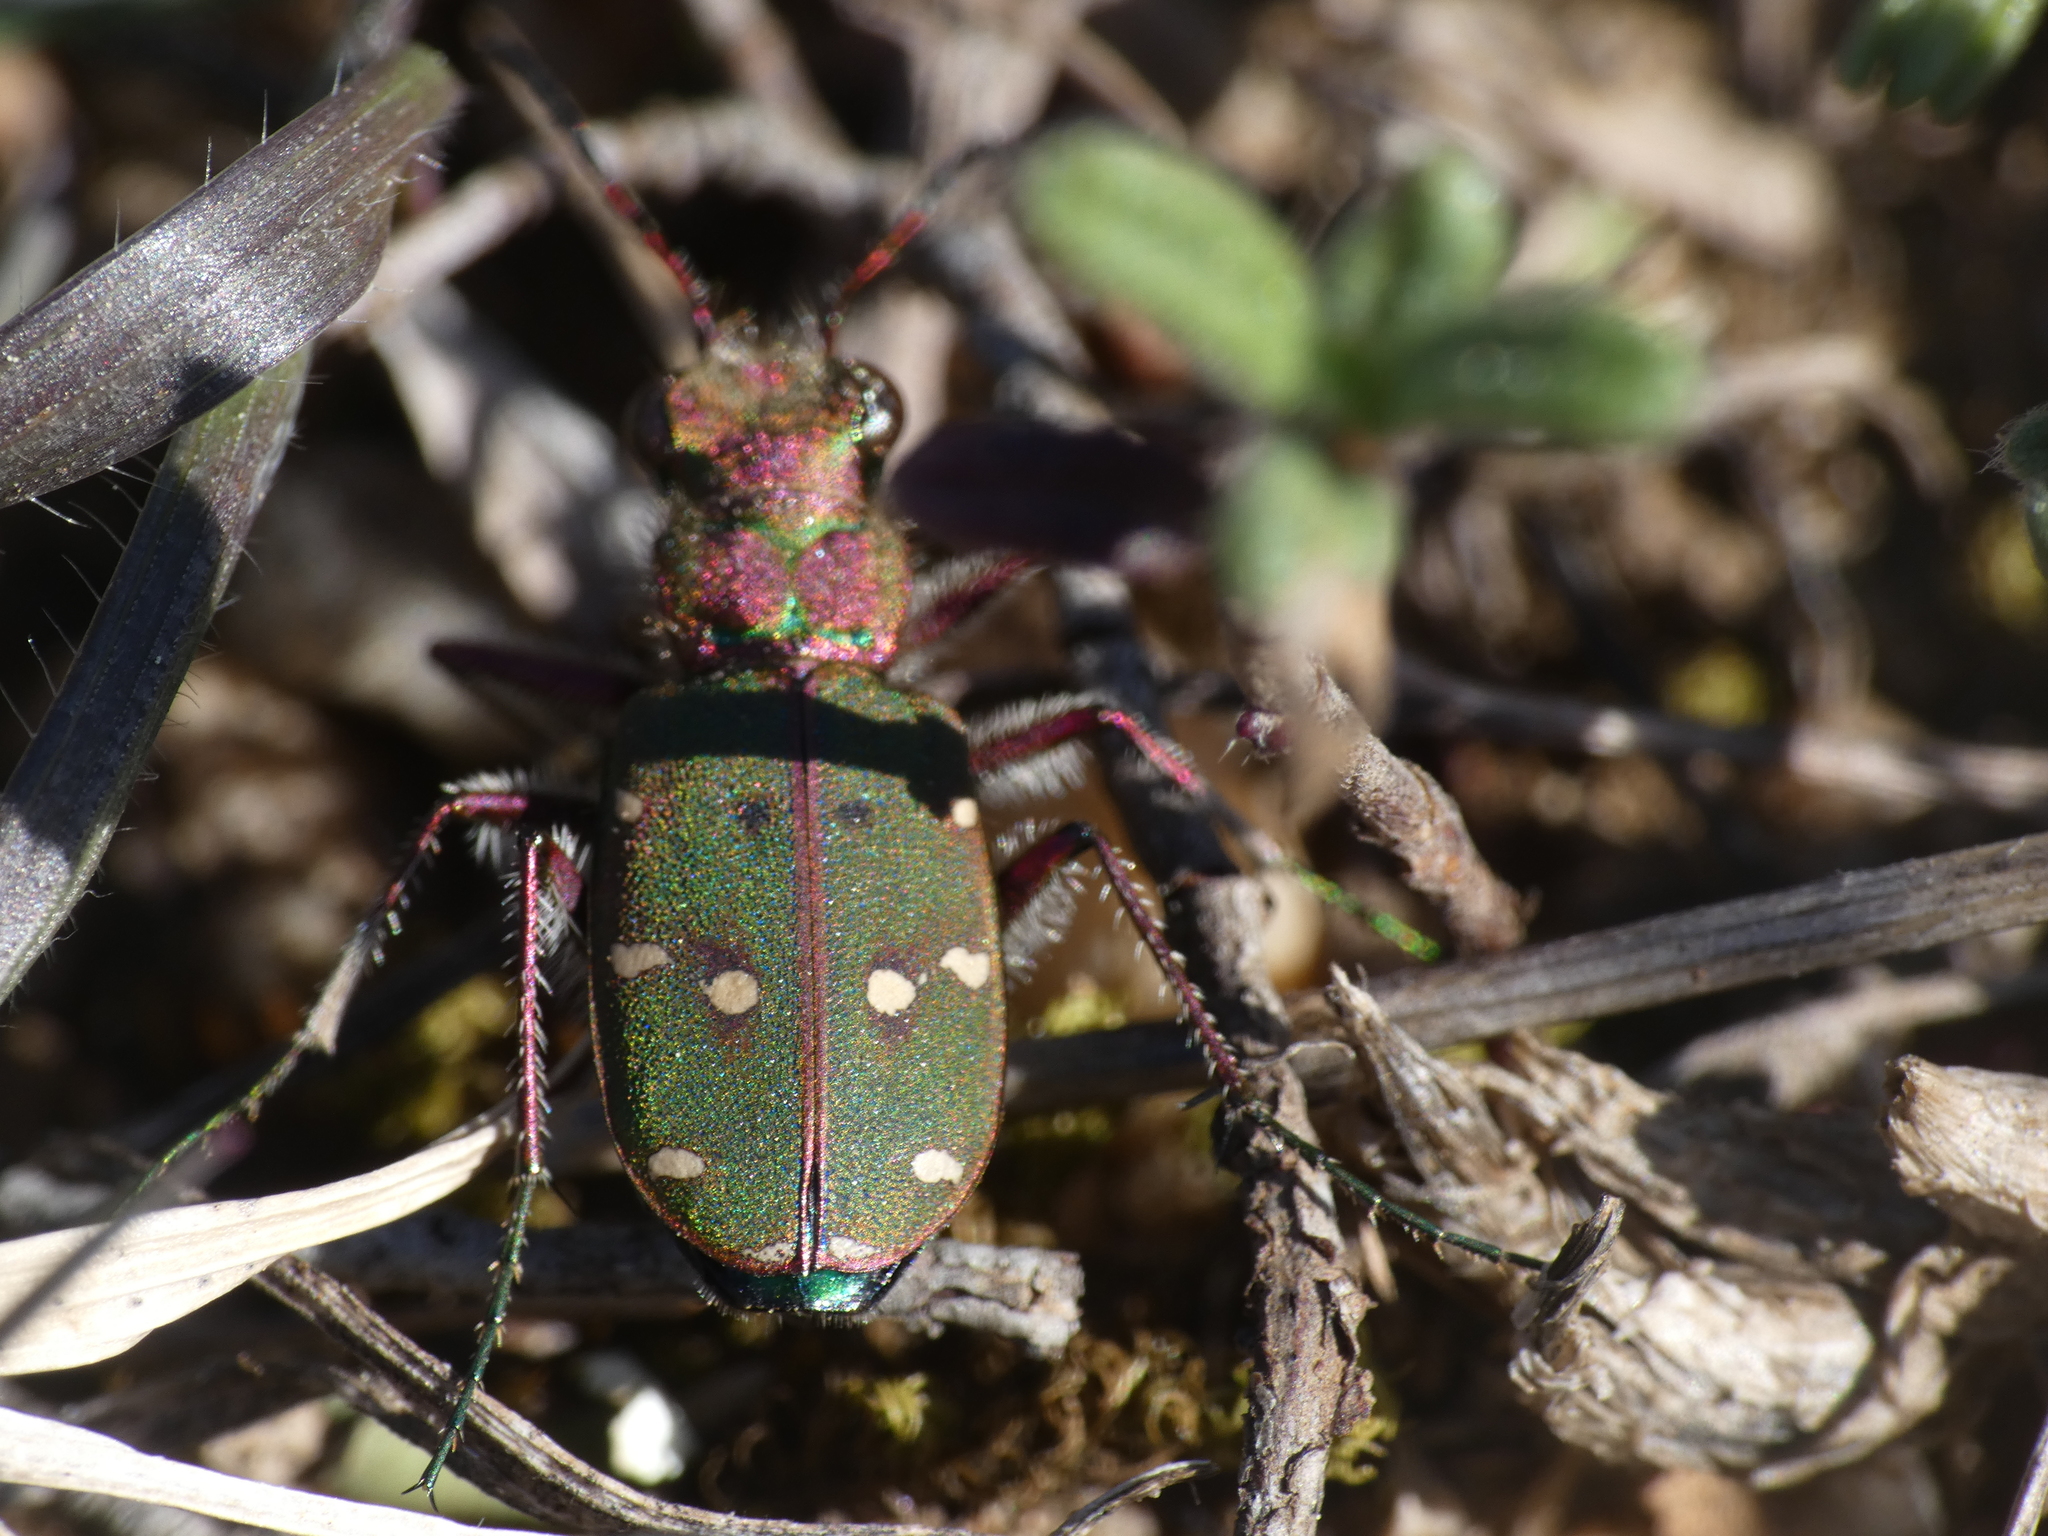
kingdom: Animalia
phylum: Arthropoda
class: Insecta
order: Coleoptera
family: Carabidae
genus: Cicindela
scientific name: Cicindela maroccana
